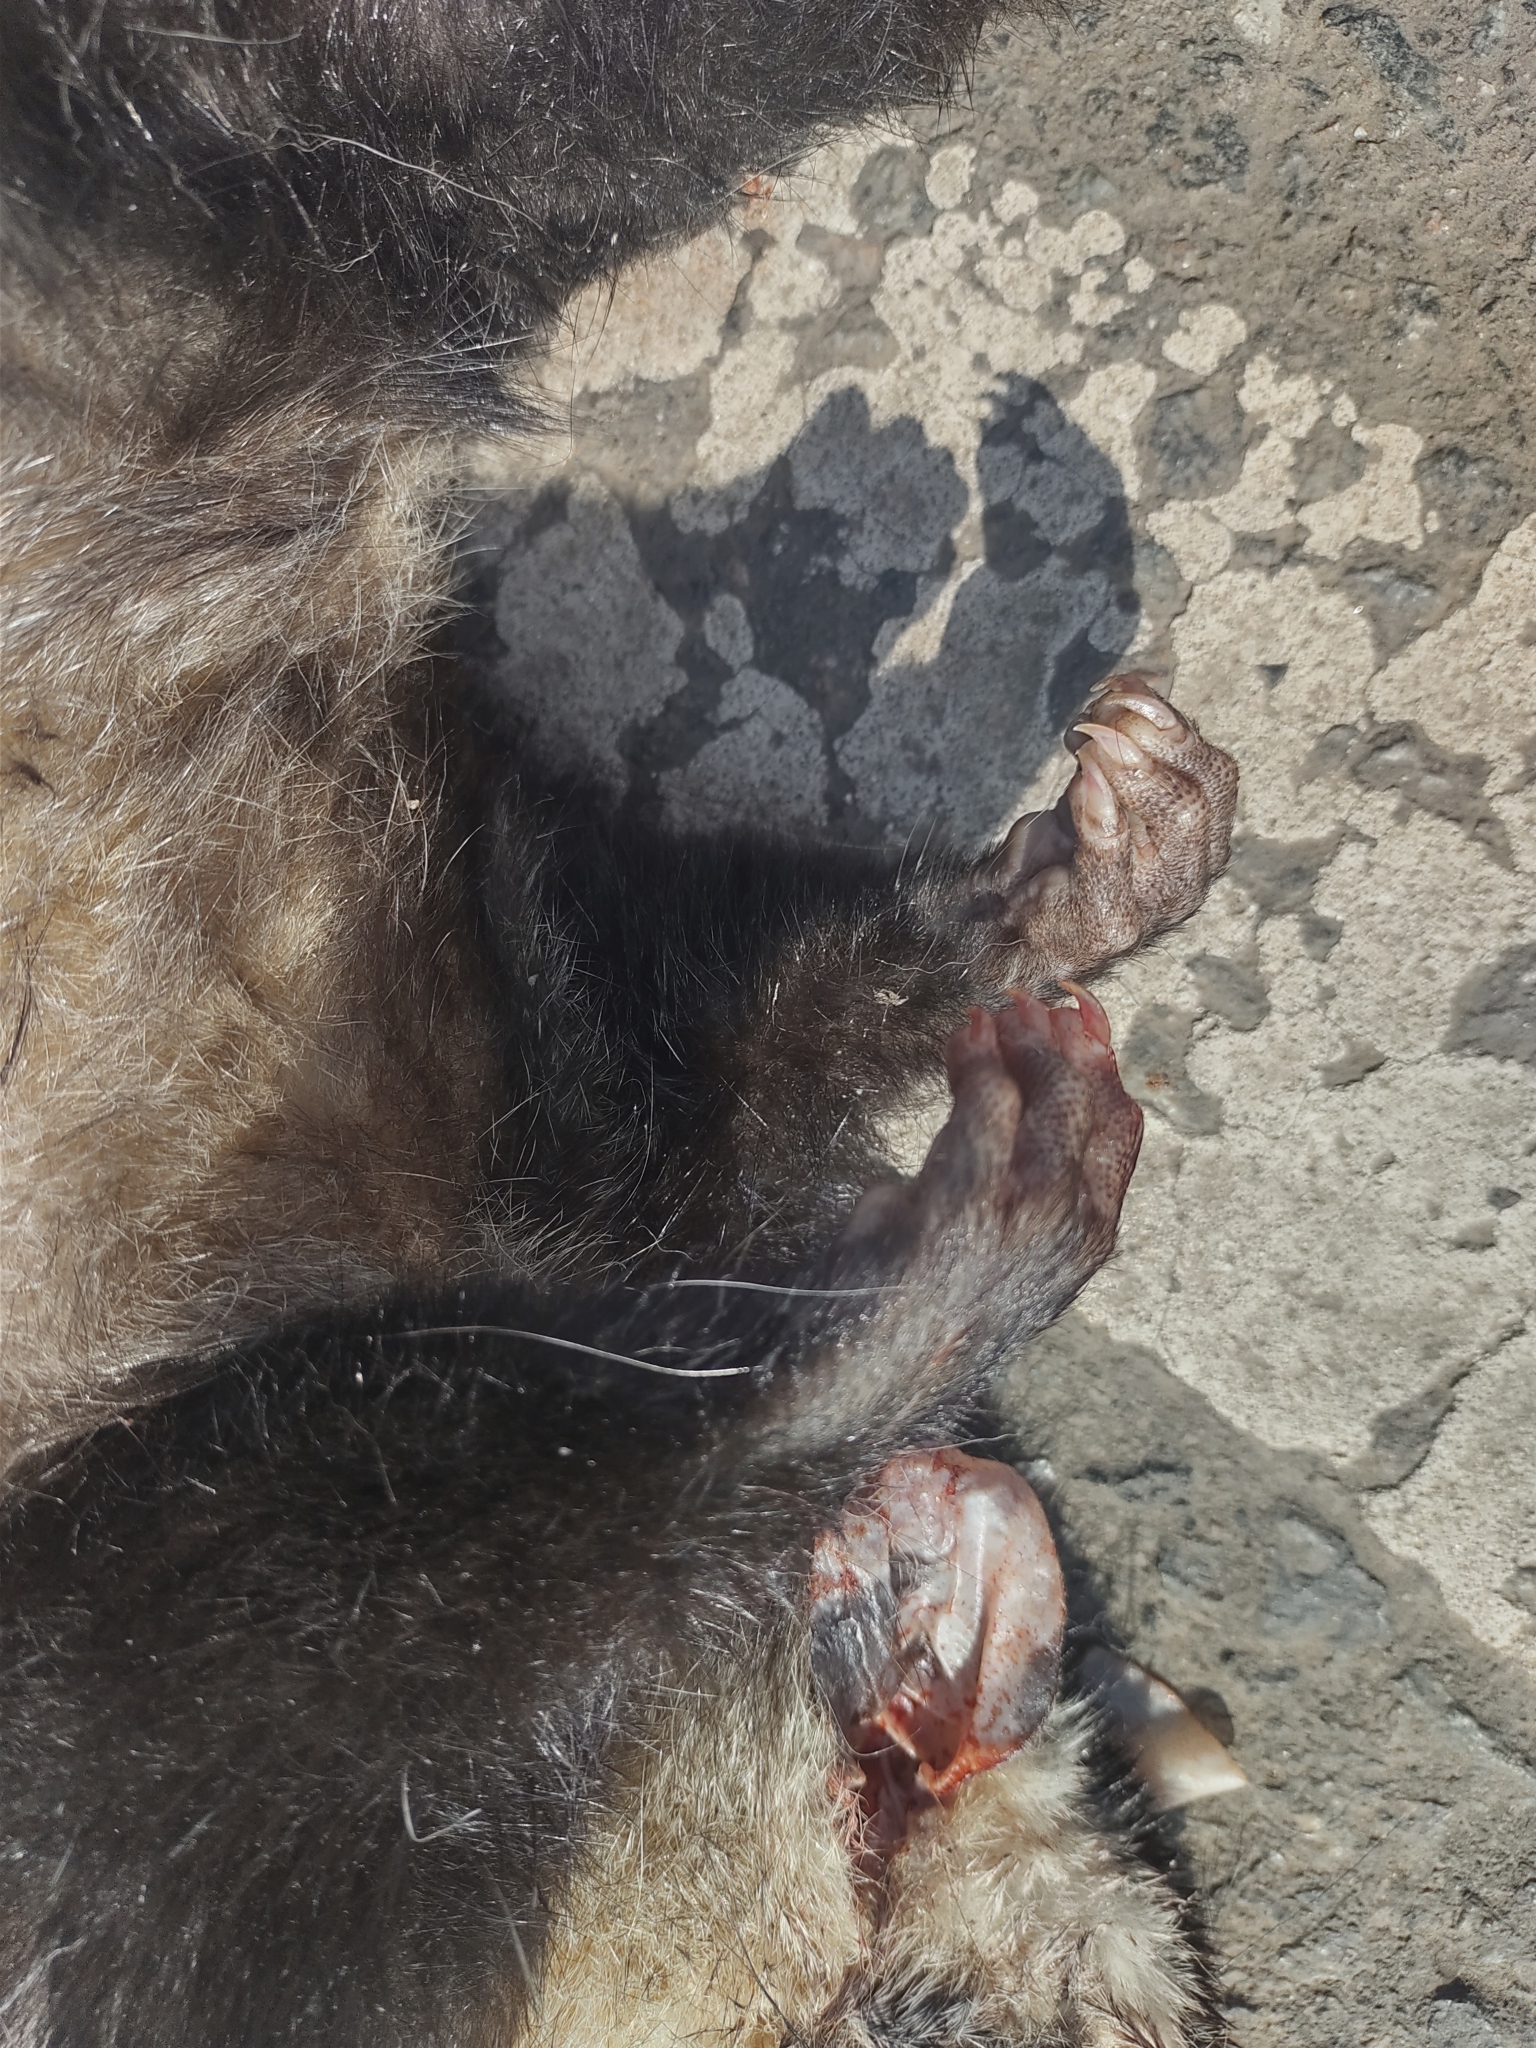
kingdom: Animalia
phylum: Chordata
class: Mammalia
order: Didelphimorphia
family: Didelphidae
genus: Didelphis
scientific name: Didelphis albiventris
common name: White-eared opossum
